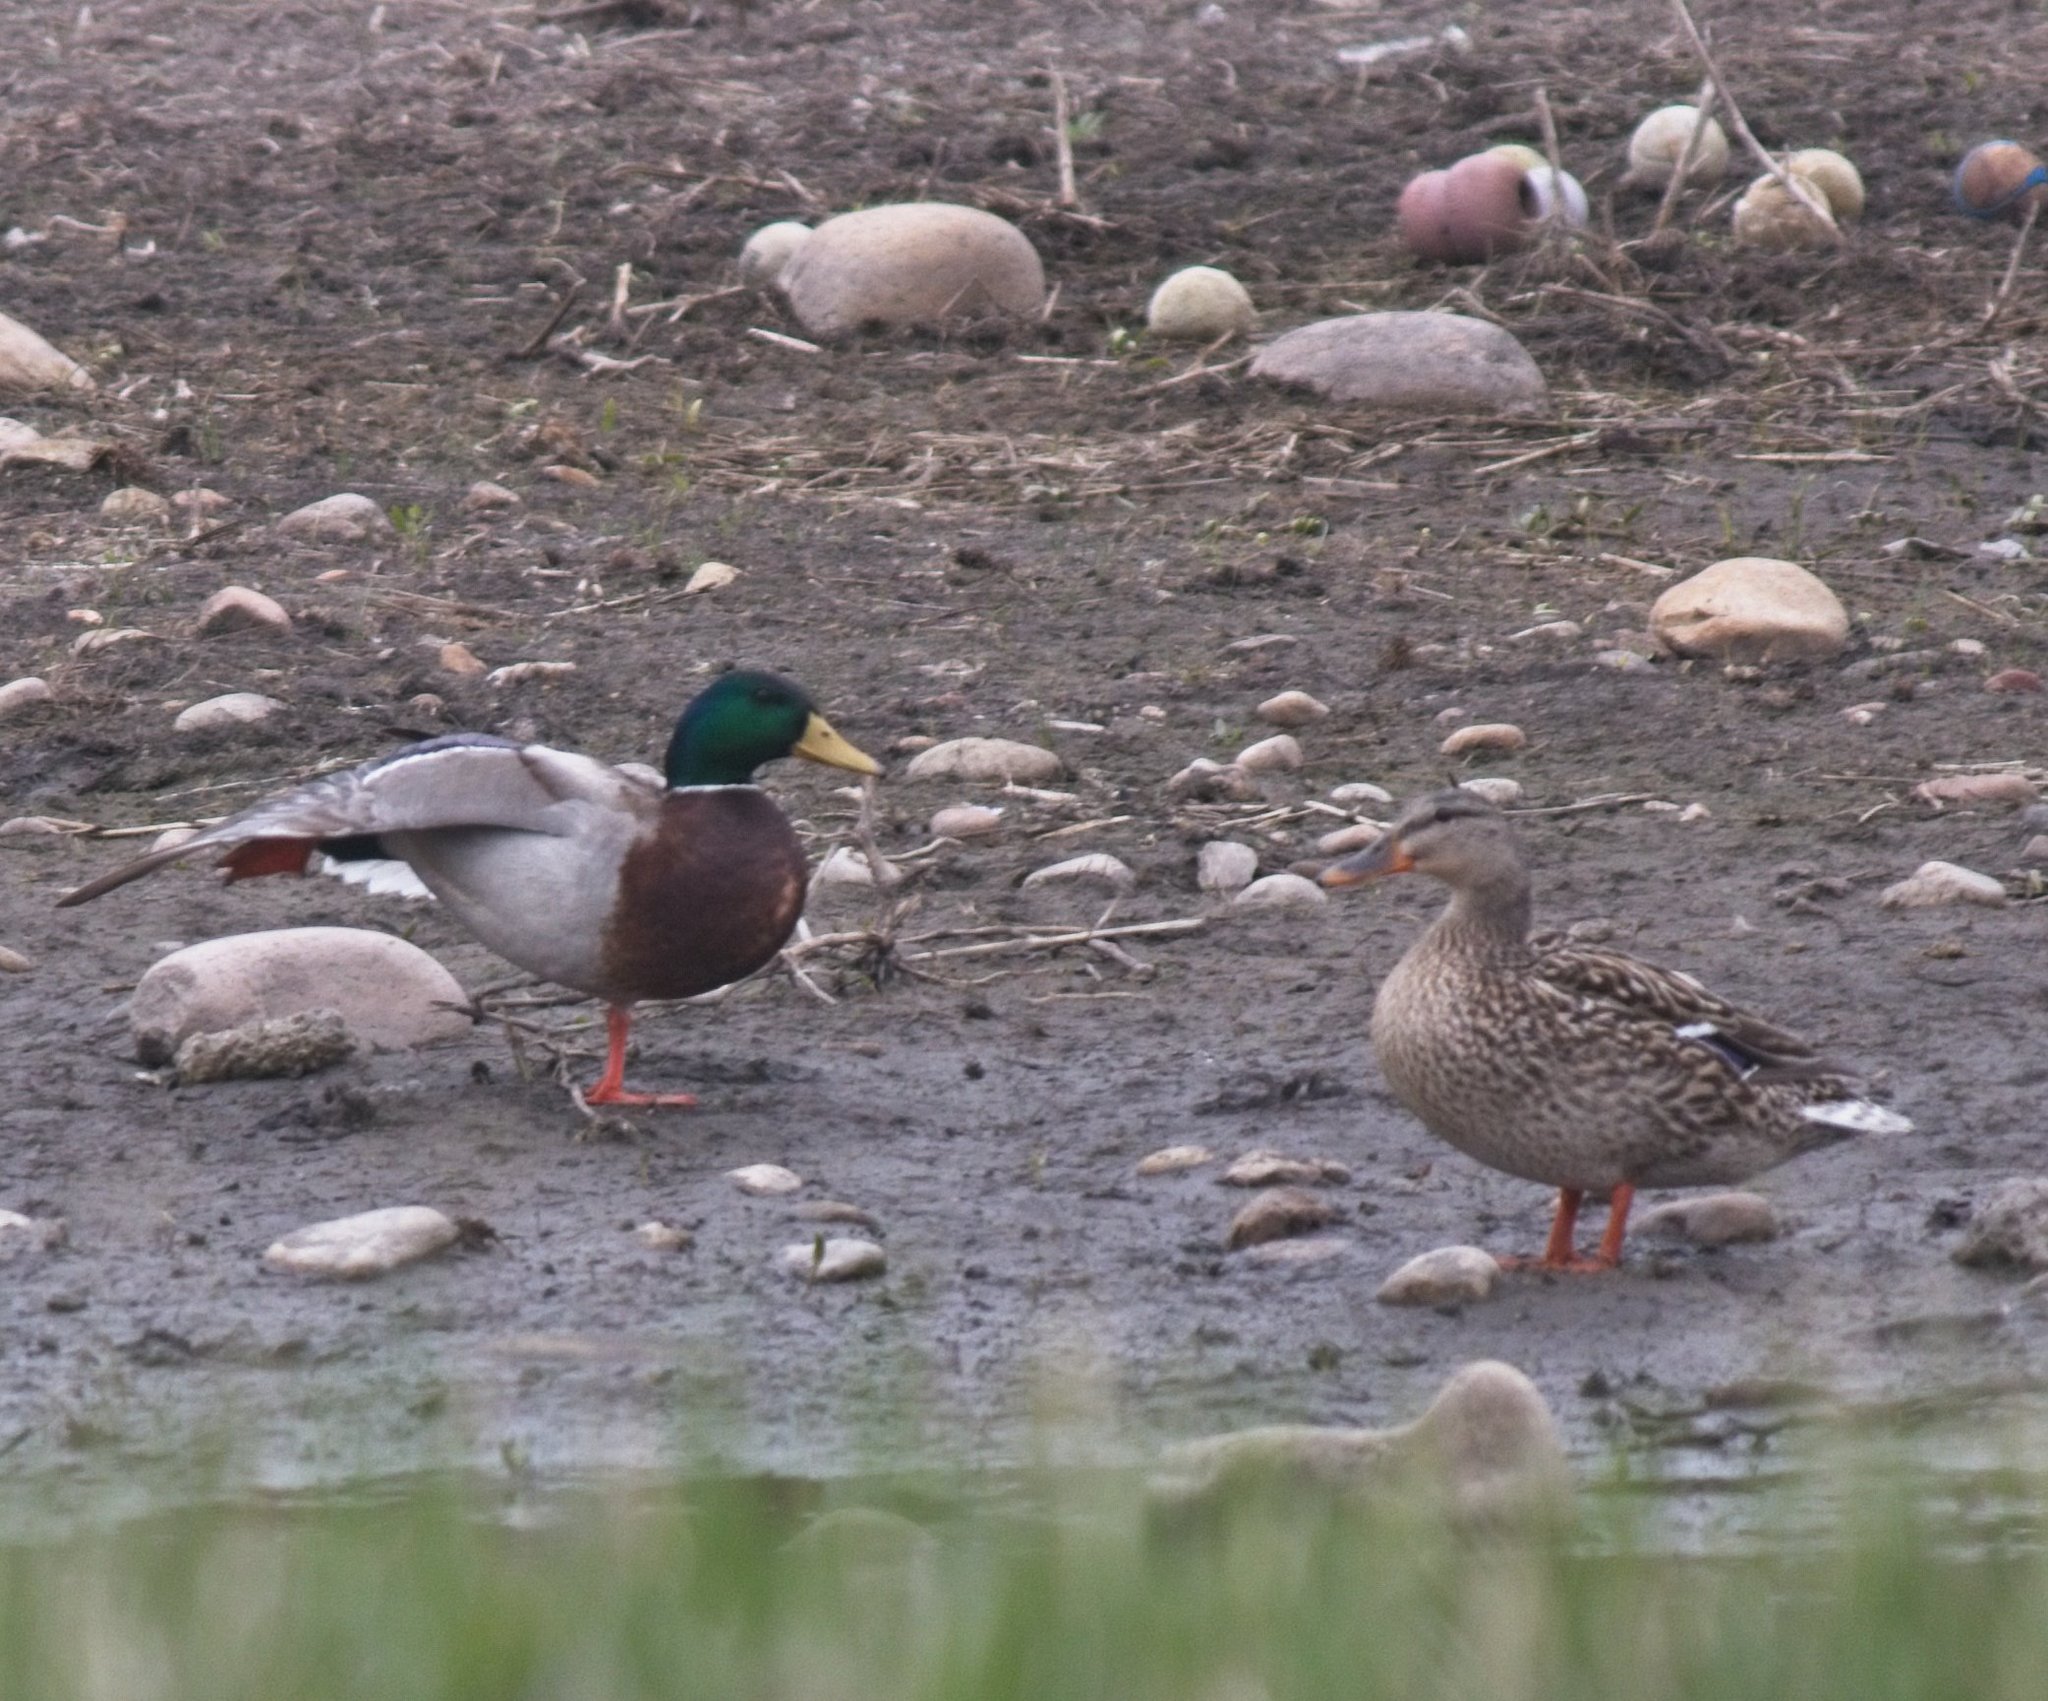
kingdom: Animalia
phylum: Chordata
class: Aves
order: Anseriformes
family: Anatidae
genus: Anas
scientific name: Anas platyrhynchos
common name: Mallard
